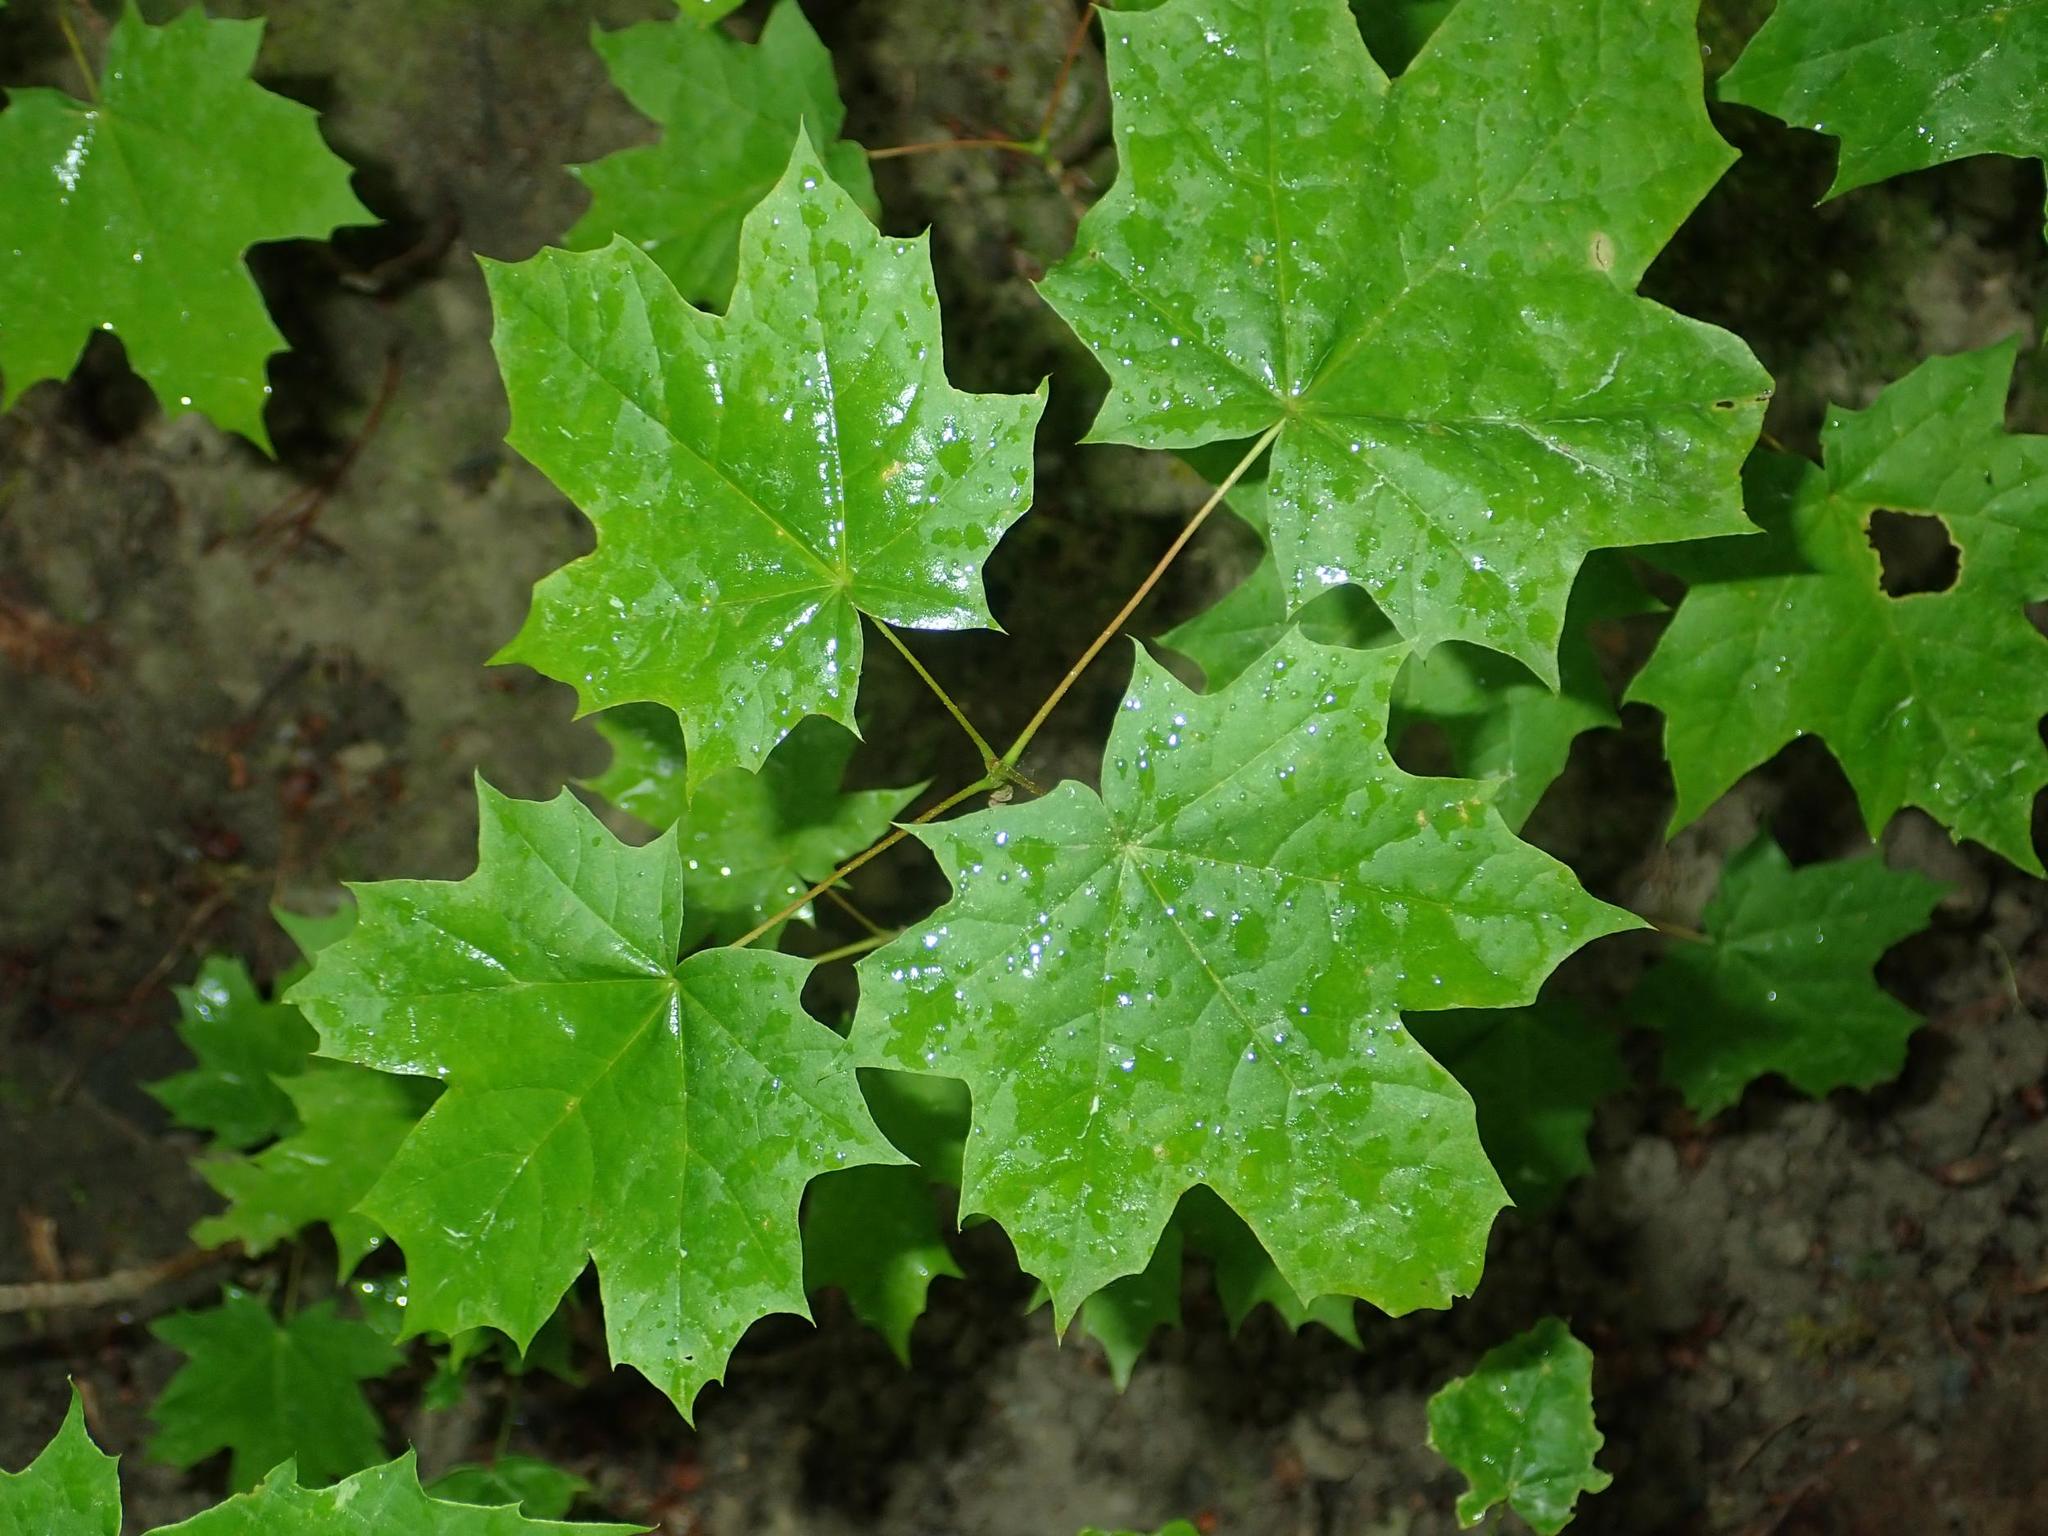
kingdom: Plantae
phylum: Tracheophyta
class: Magnoliopsida
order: Sapindales
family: Sapindaceae
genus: Acer
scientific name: Acer platanoides
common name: Norway maple
